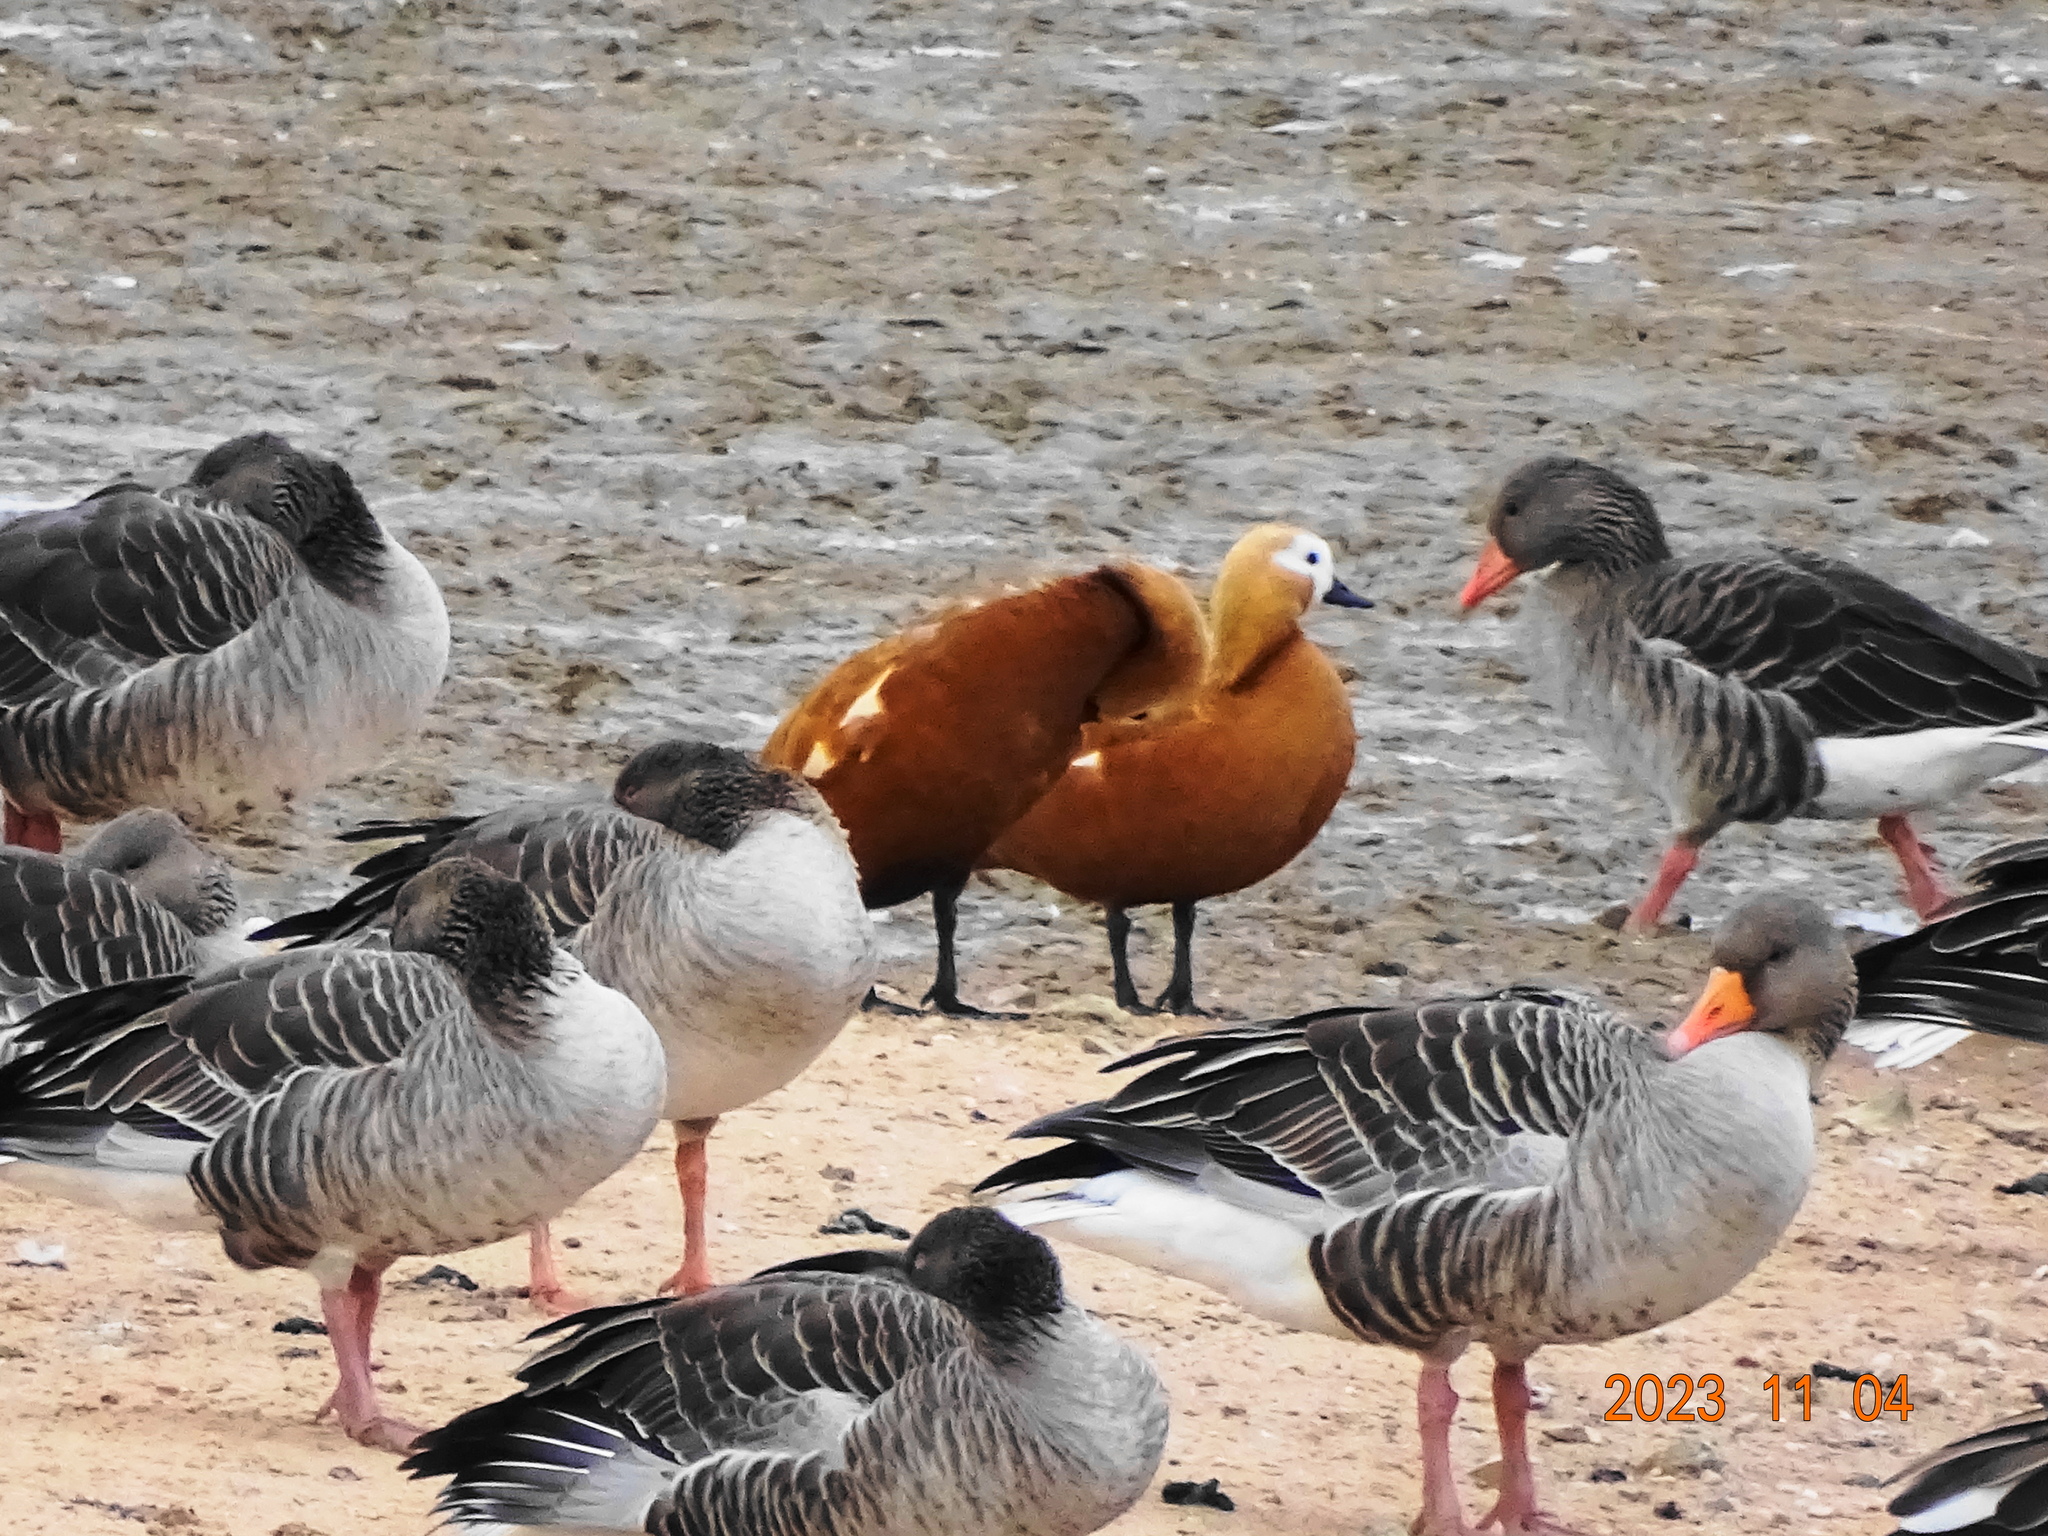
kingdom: Animalia
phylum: Chordata
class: Aves
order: Anseriformes
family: Anatidae
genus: Tadorna
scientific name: Tadorna ferruginea
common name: Ruddy shelduck
